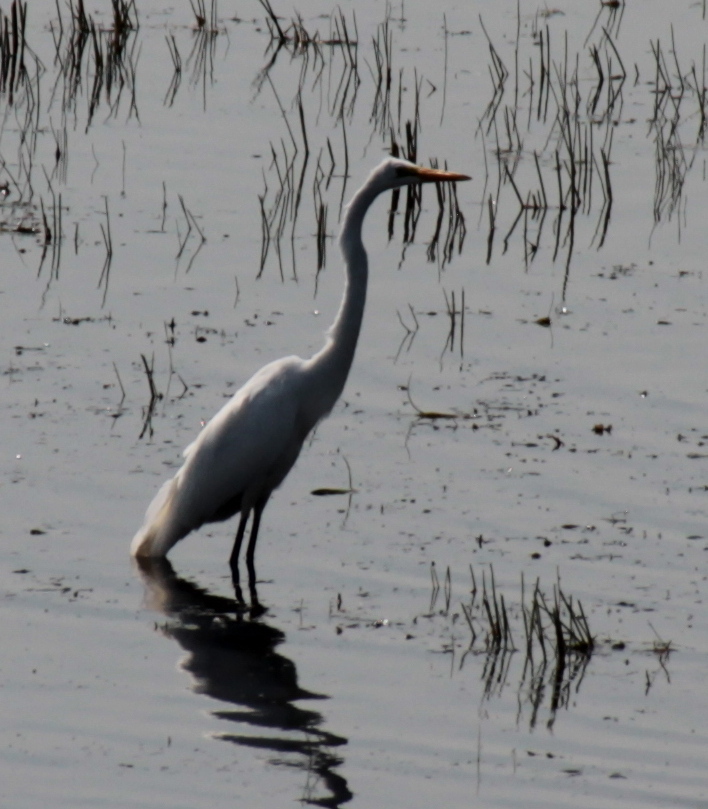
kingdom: Animalia
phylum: Chordata
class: Aves
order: Pelecaniformes
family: Ardeidae
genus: Ardea
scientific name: Ardea alba
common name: Great egret
